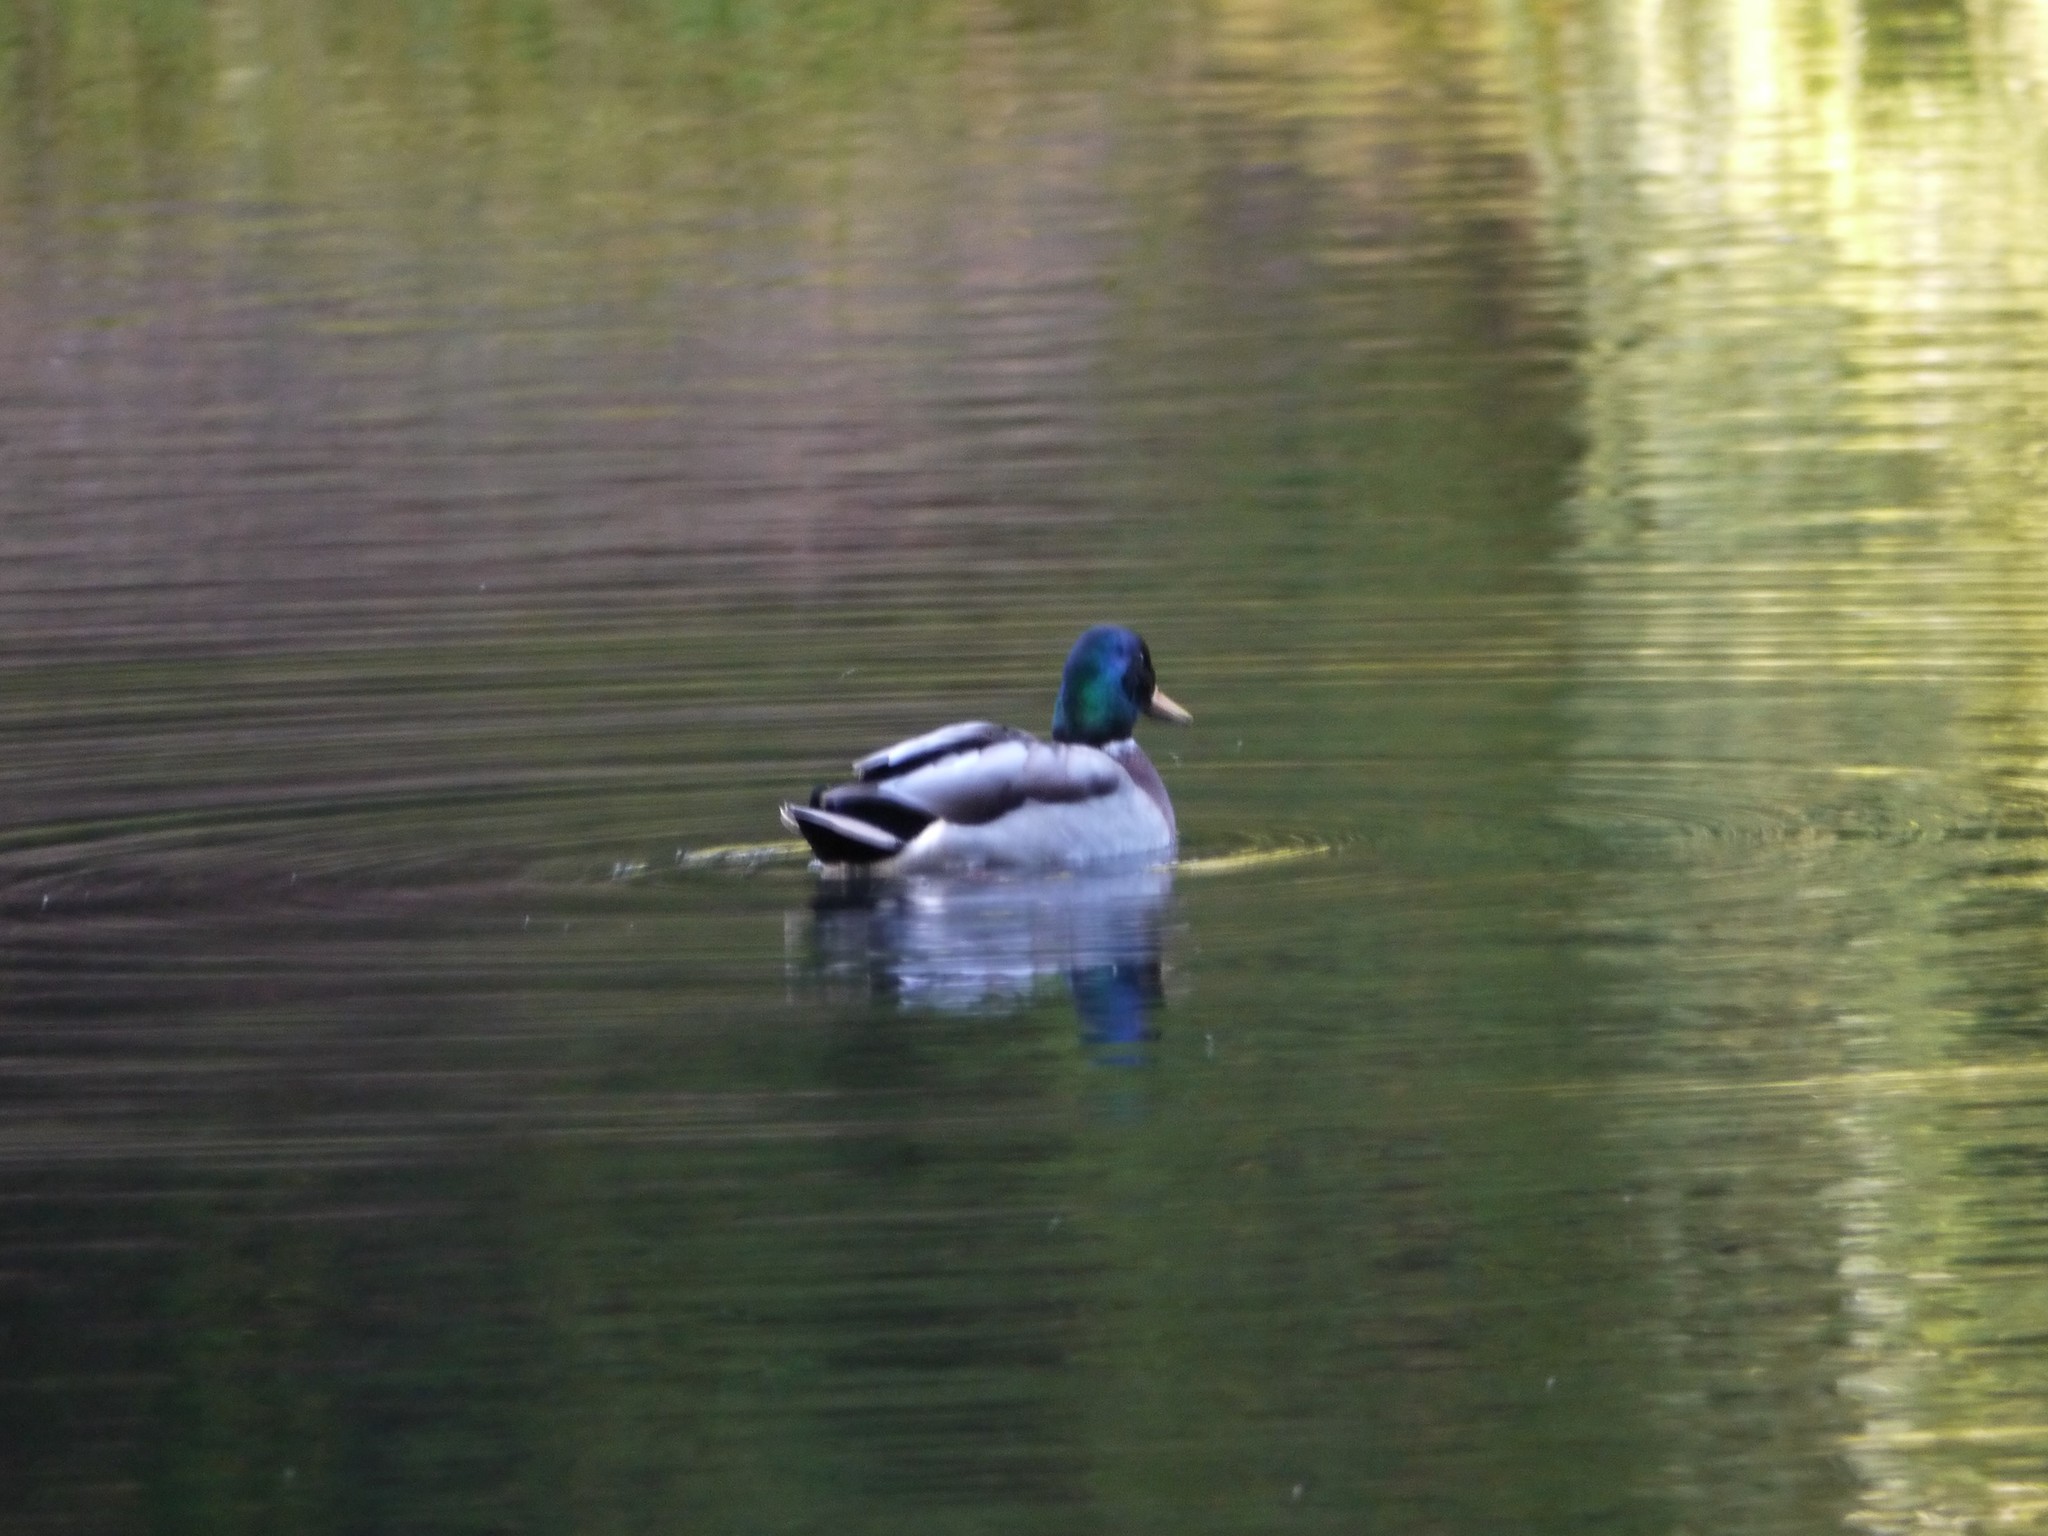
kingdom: Animalia
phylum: Chordata
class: Aves
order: Anseriformes
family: Anatidae
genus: Anas
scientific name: Anas platyrhynchos
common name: Mallard
